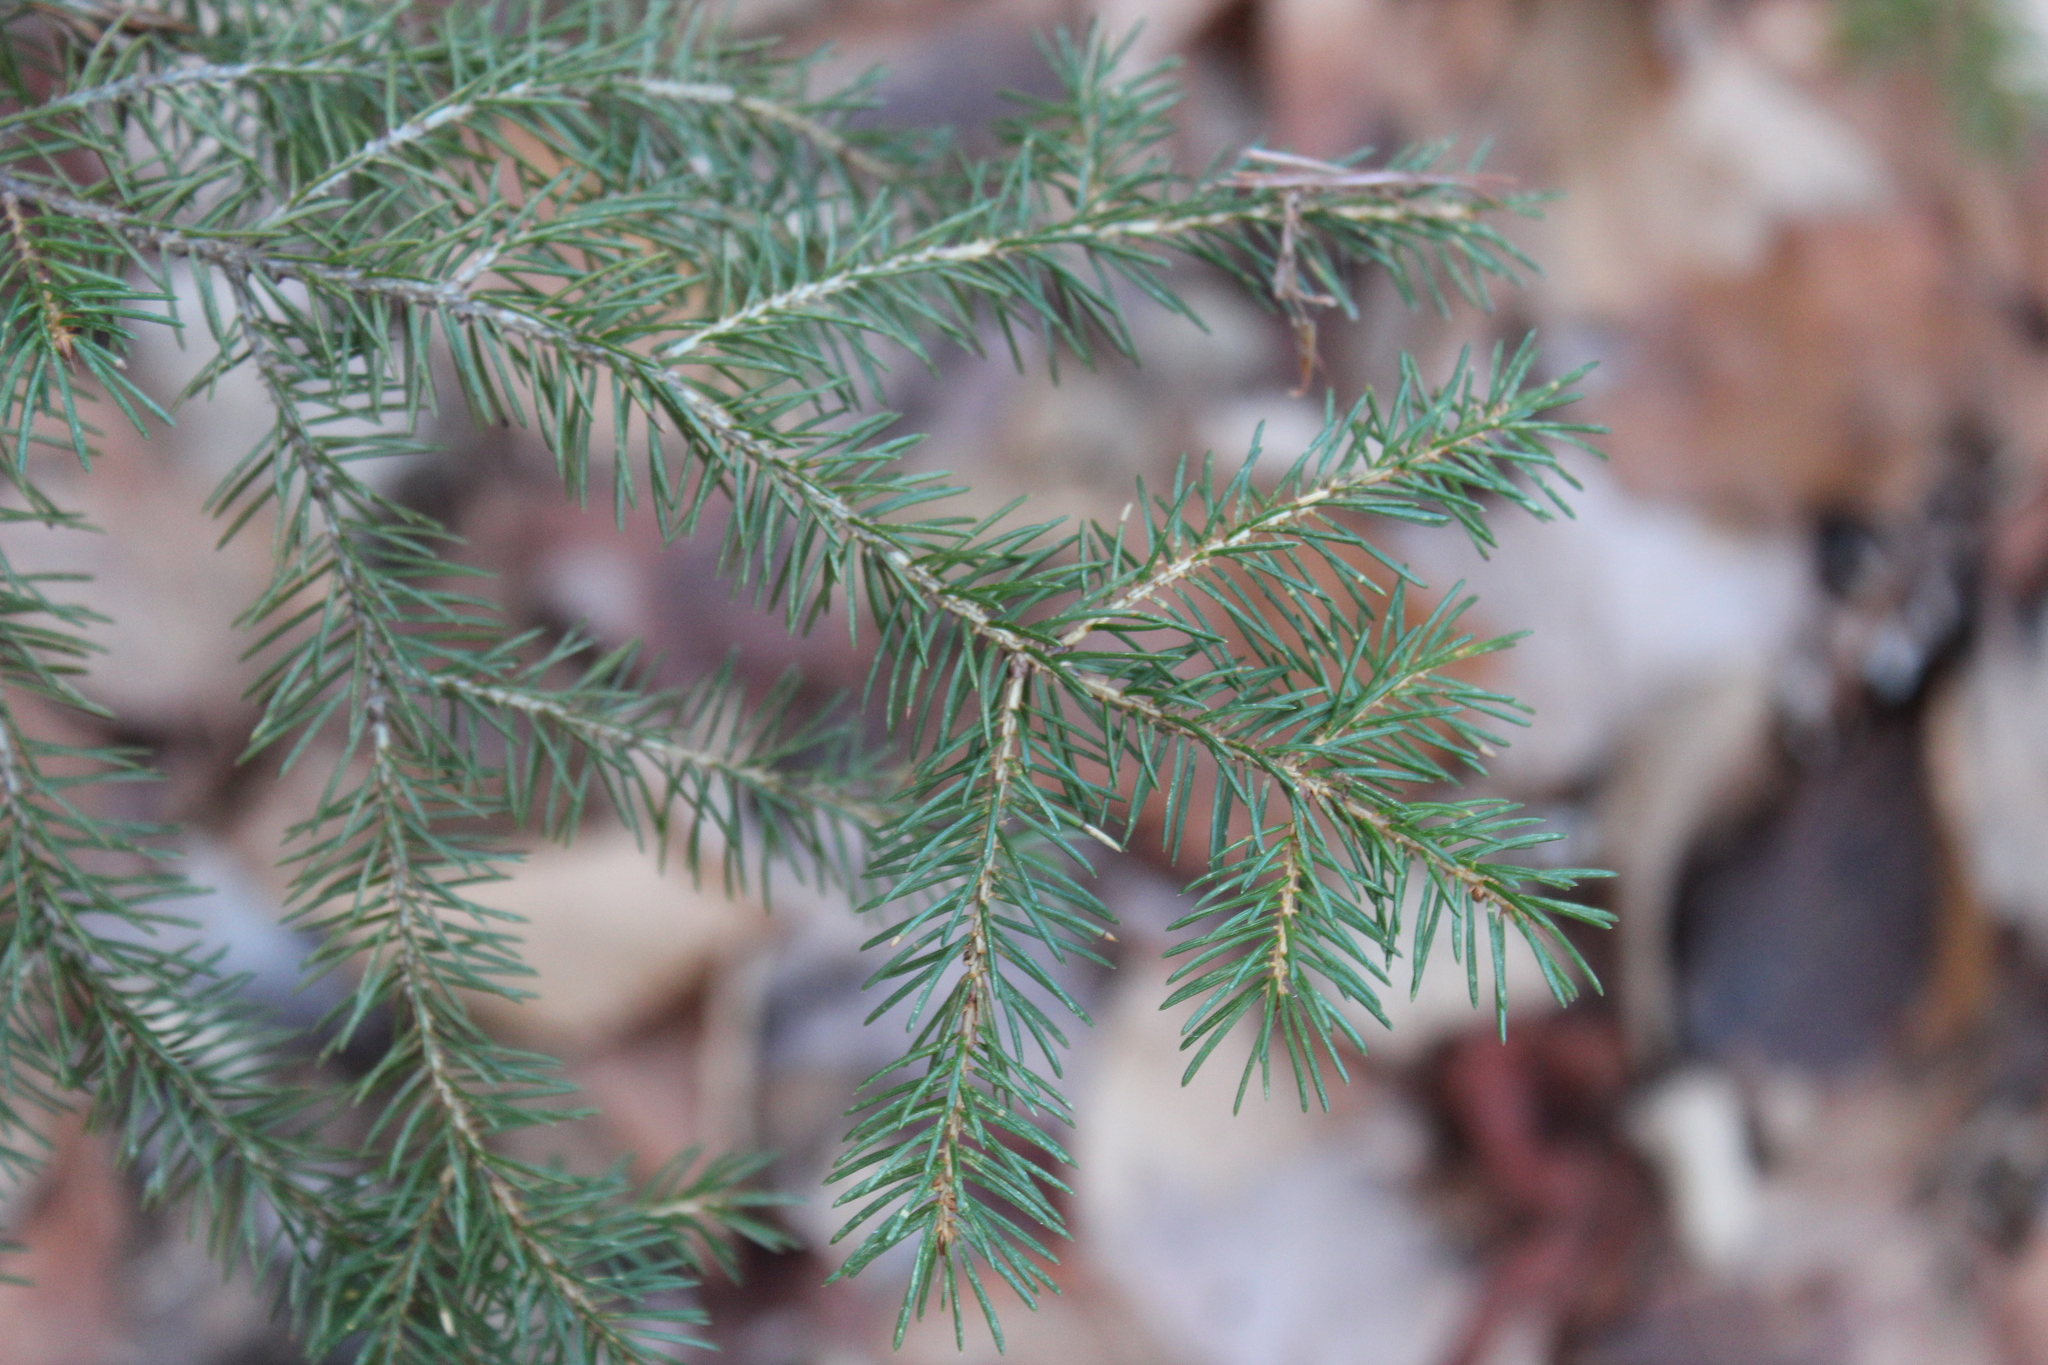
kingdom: Plantae
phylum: Tracheophyta
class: Pinopsida
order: Pinales
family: Pinaceae
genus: Picea
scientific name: Picea rubens
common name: Red spruce
